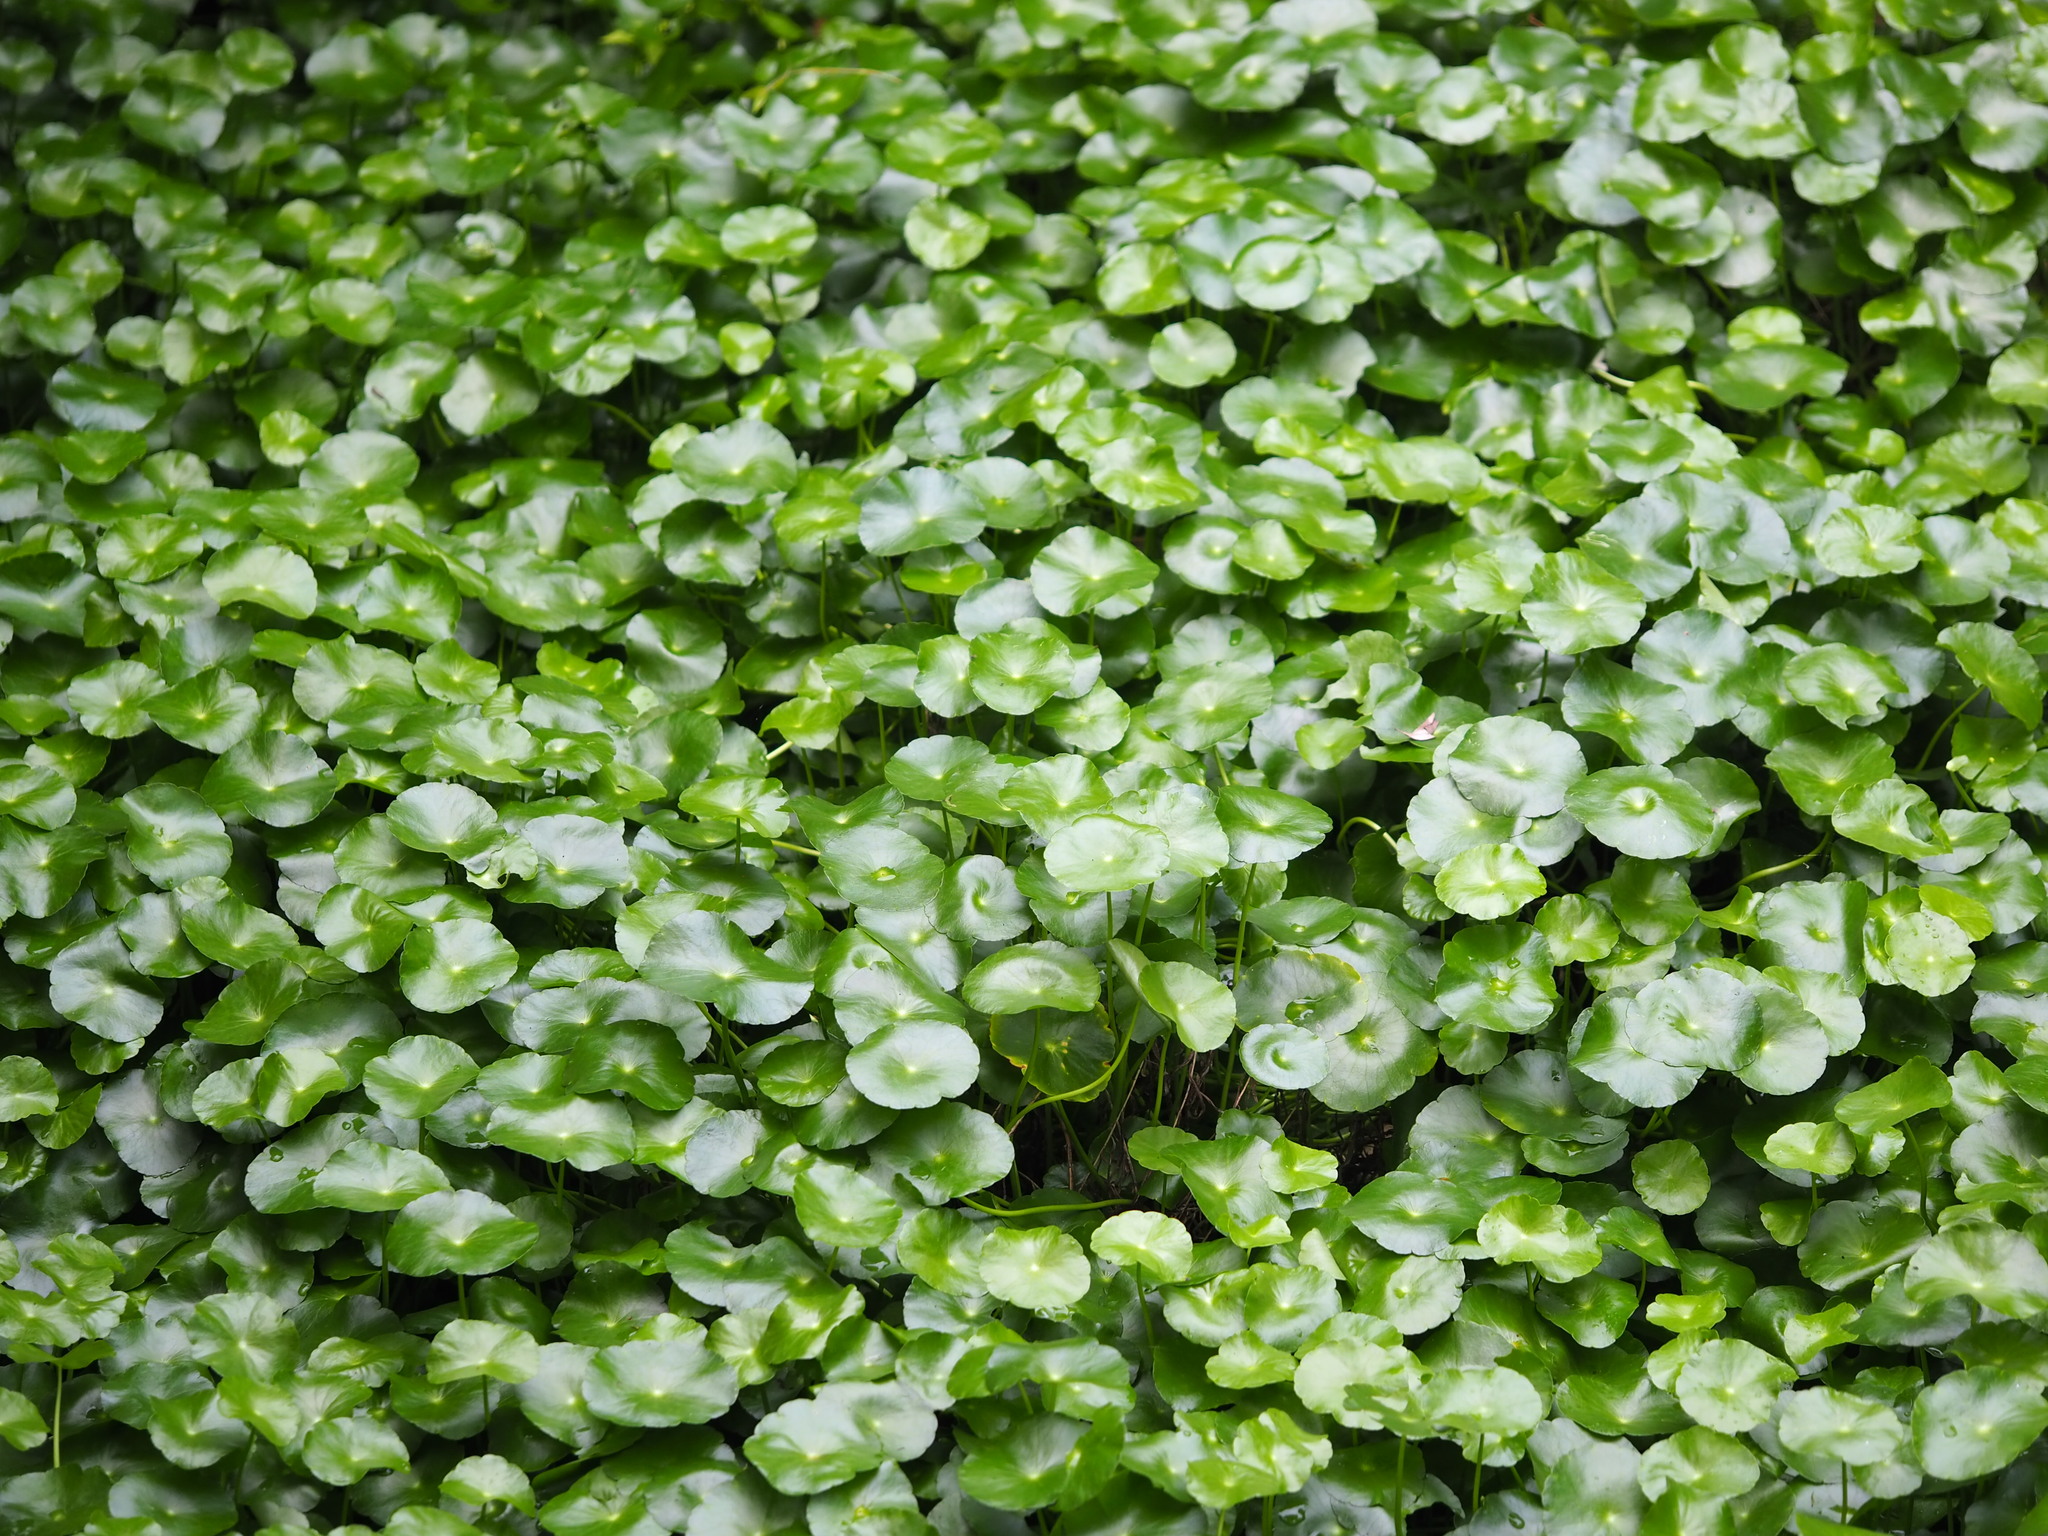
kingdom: Plantae
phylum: Tracheophyta
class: Magnoliopsida
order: Apiales
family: Araliaceae
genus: Hydrocotyle
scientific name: Hydrocotyle verticillata
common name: Whorled marshpennywort
